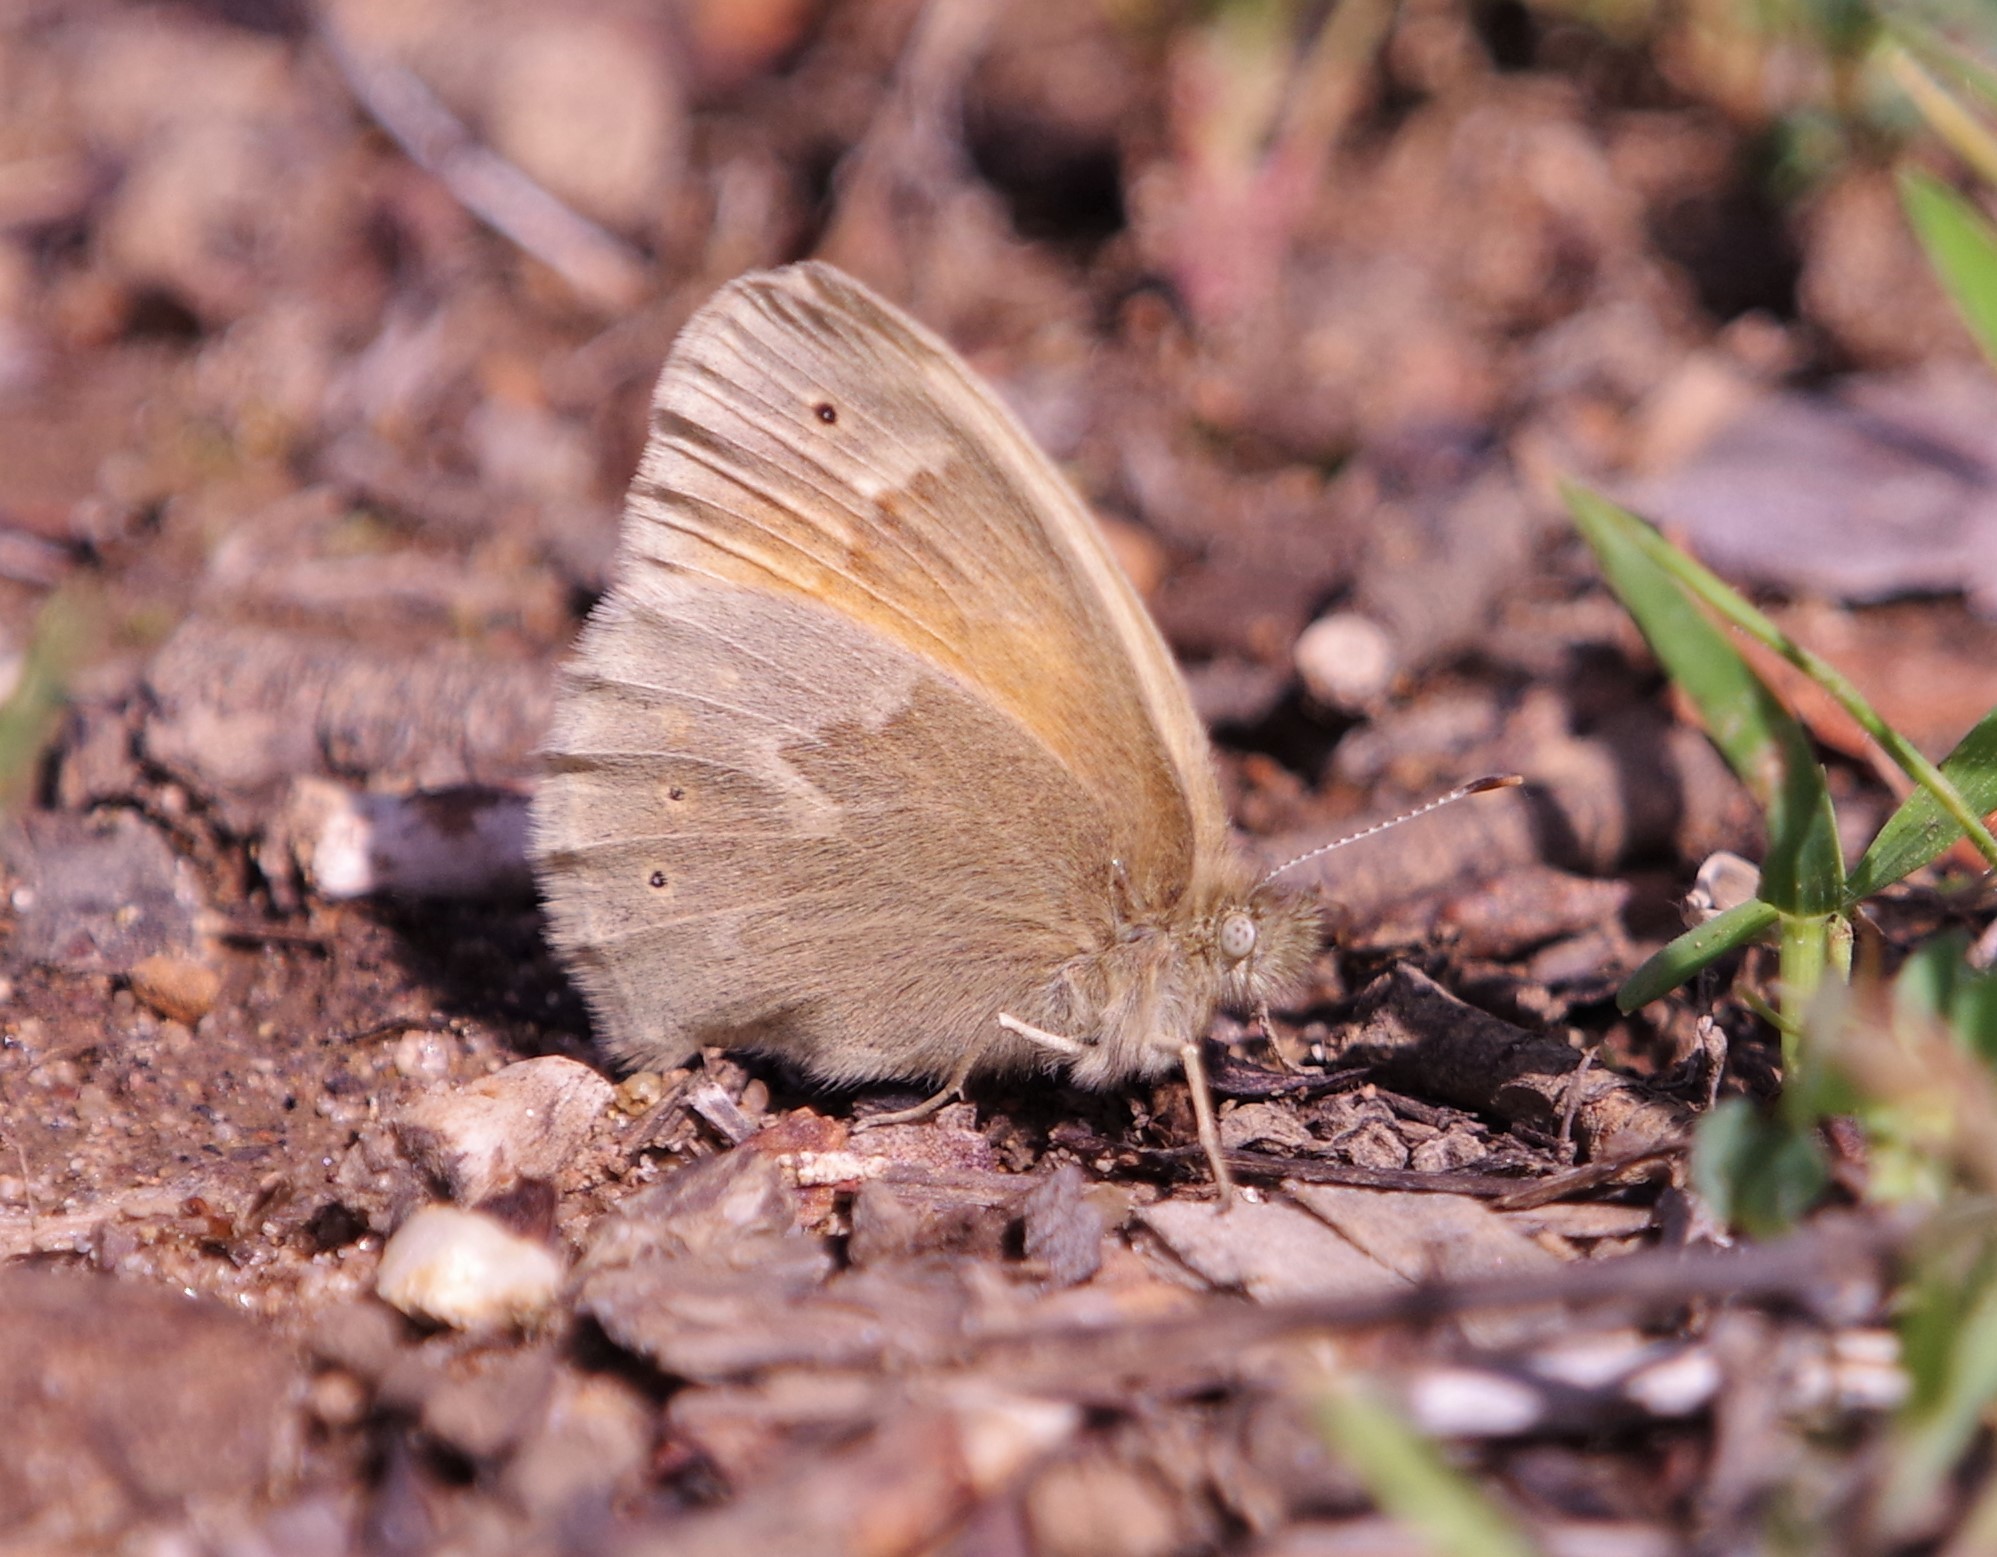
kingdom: Animalia
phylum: Arthropoda
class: Insecta
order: Lepidoptera
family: Nymphalidae
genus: Coenonympha
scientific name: Coenonympha california
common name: Common ringlet
